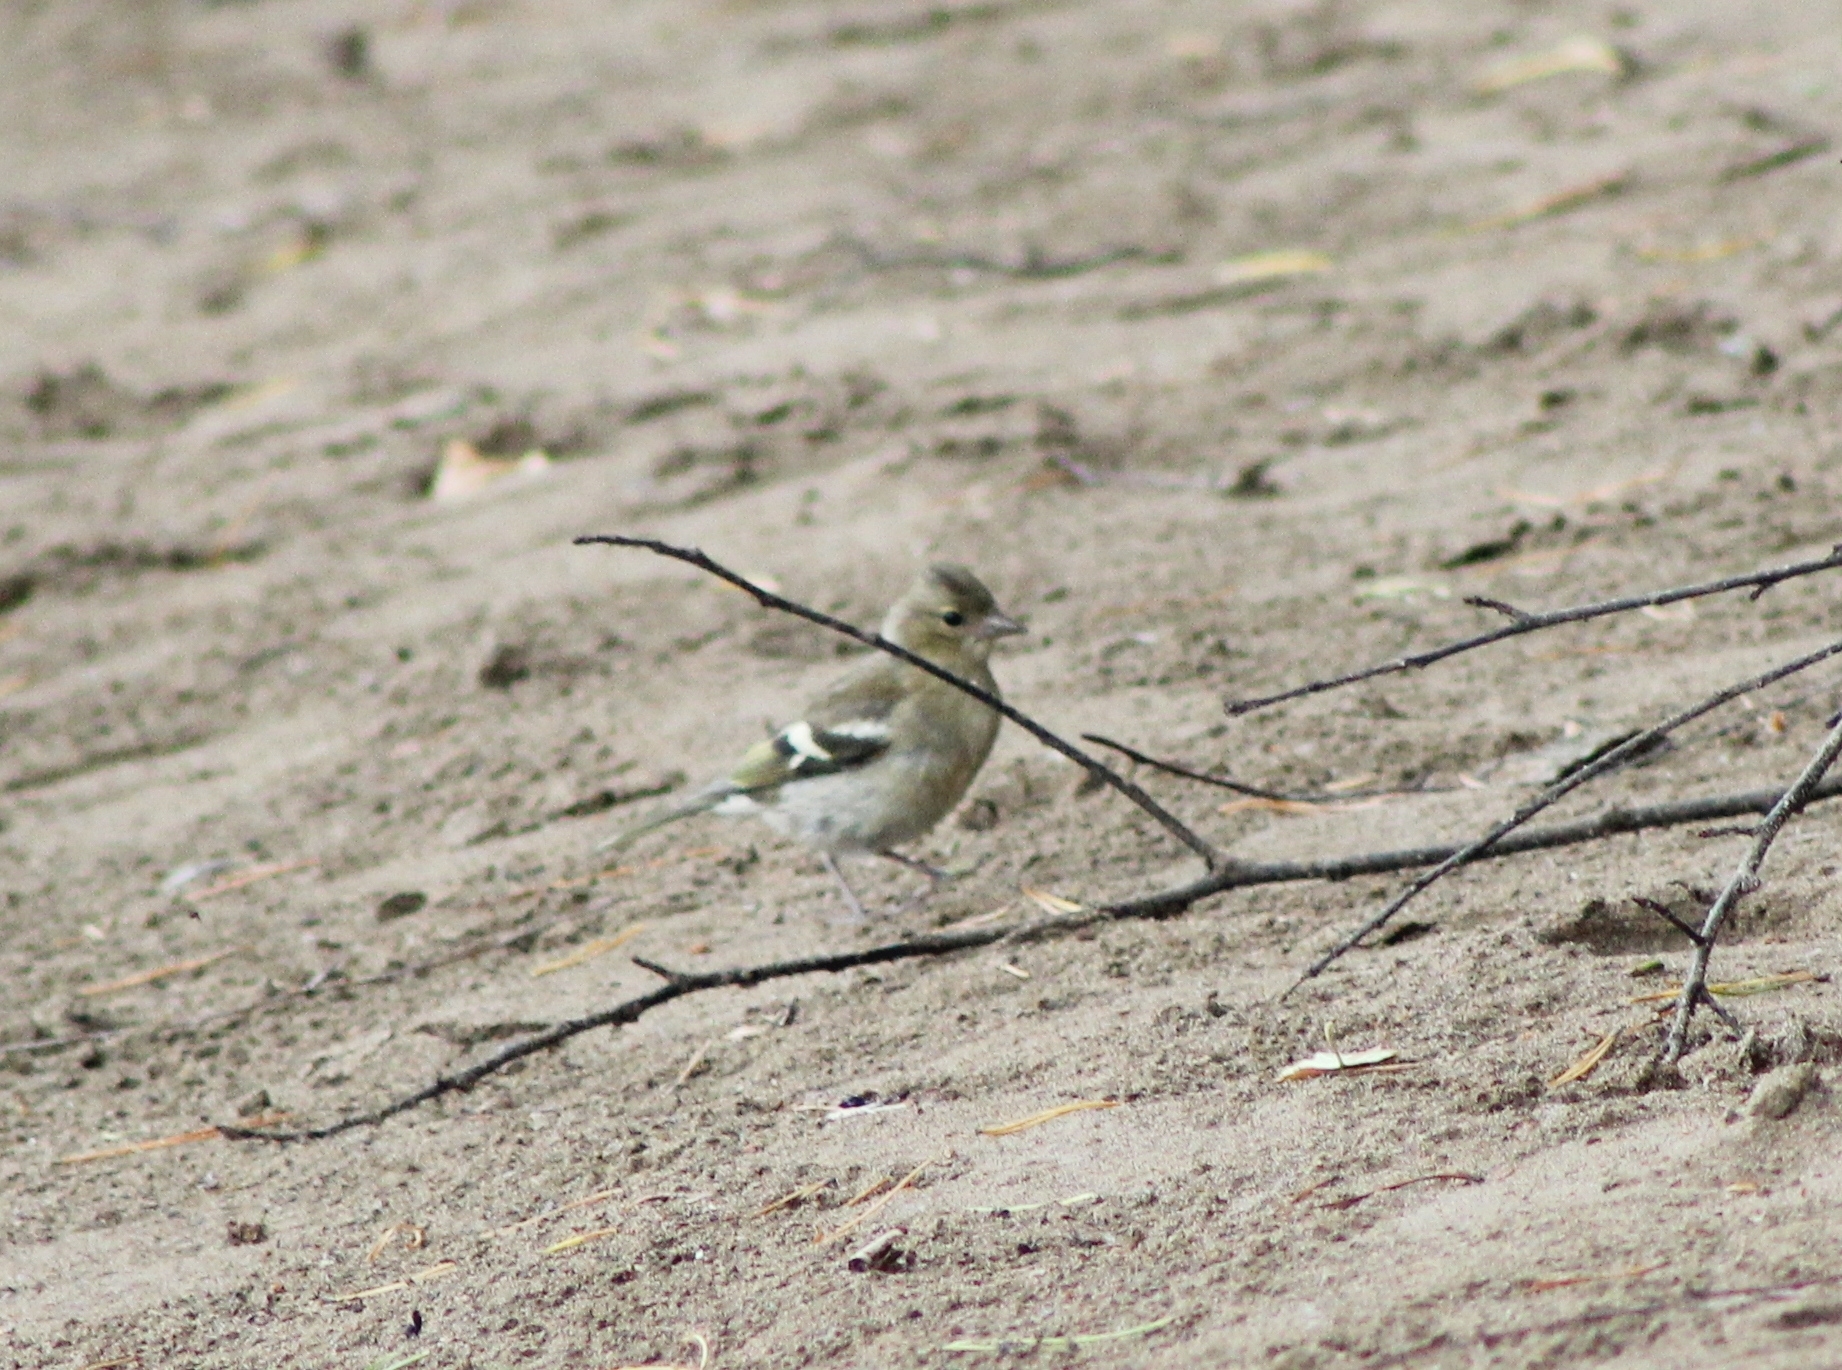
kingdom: Animalia
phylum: Chordata
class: Aves
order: Passeriformes
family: Fringillidae
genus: Fringilla
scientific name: Fringilla coelebs
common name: Common chaffinch
